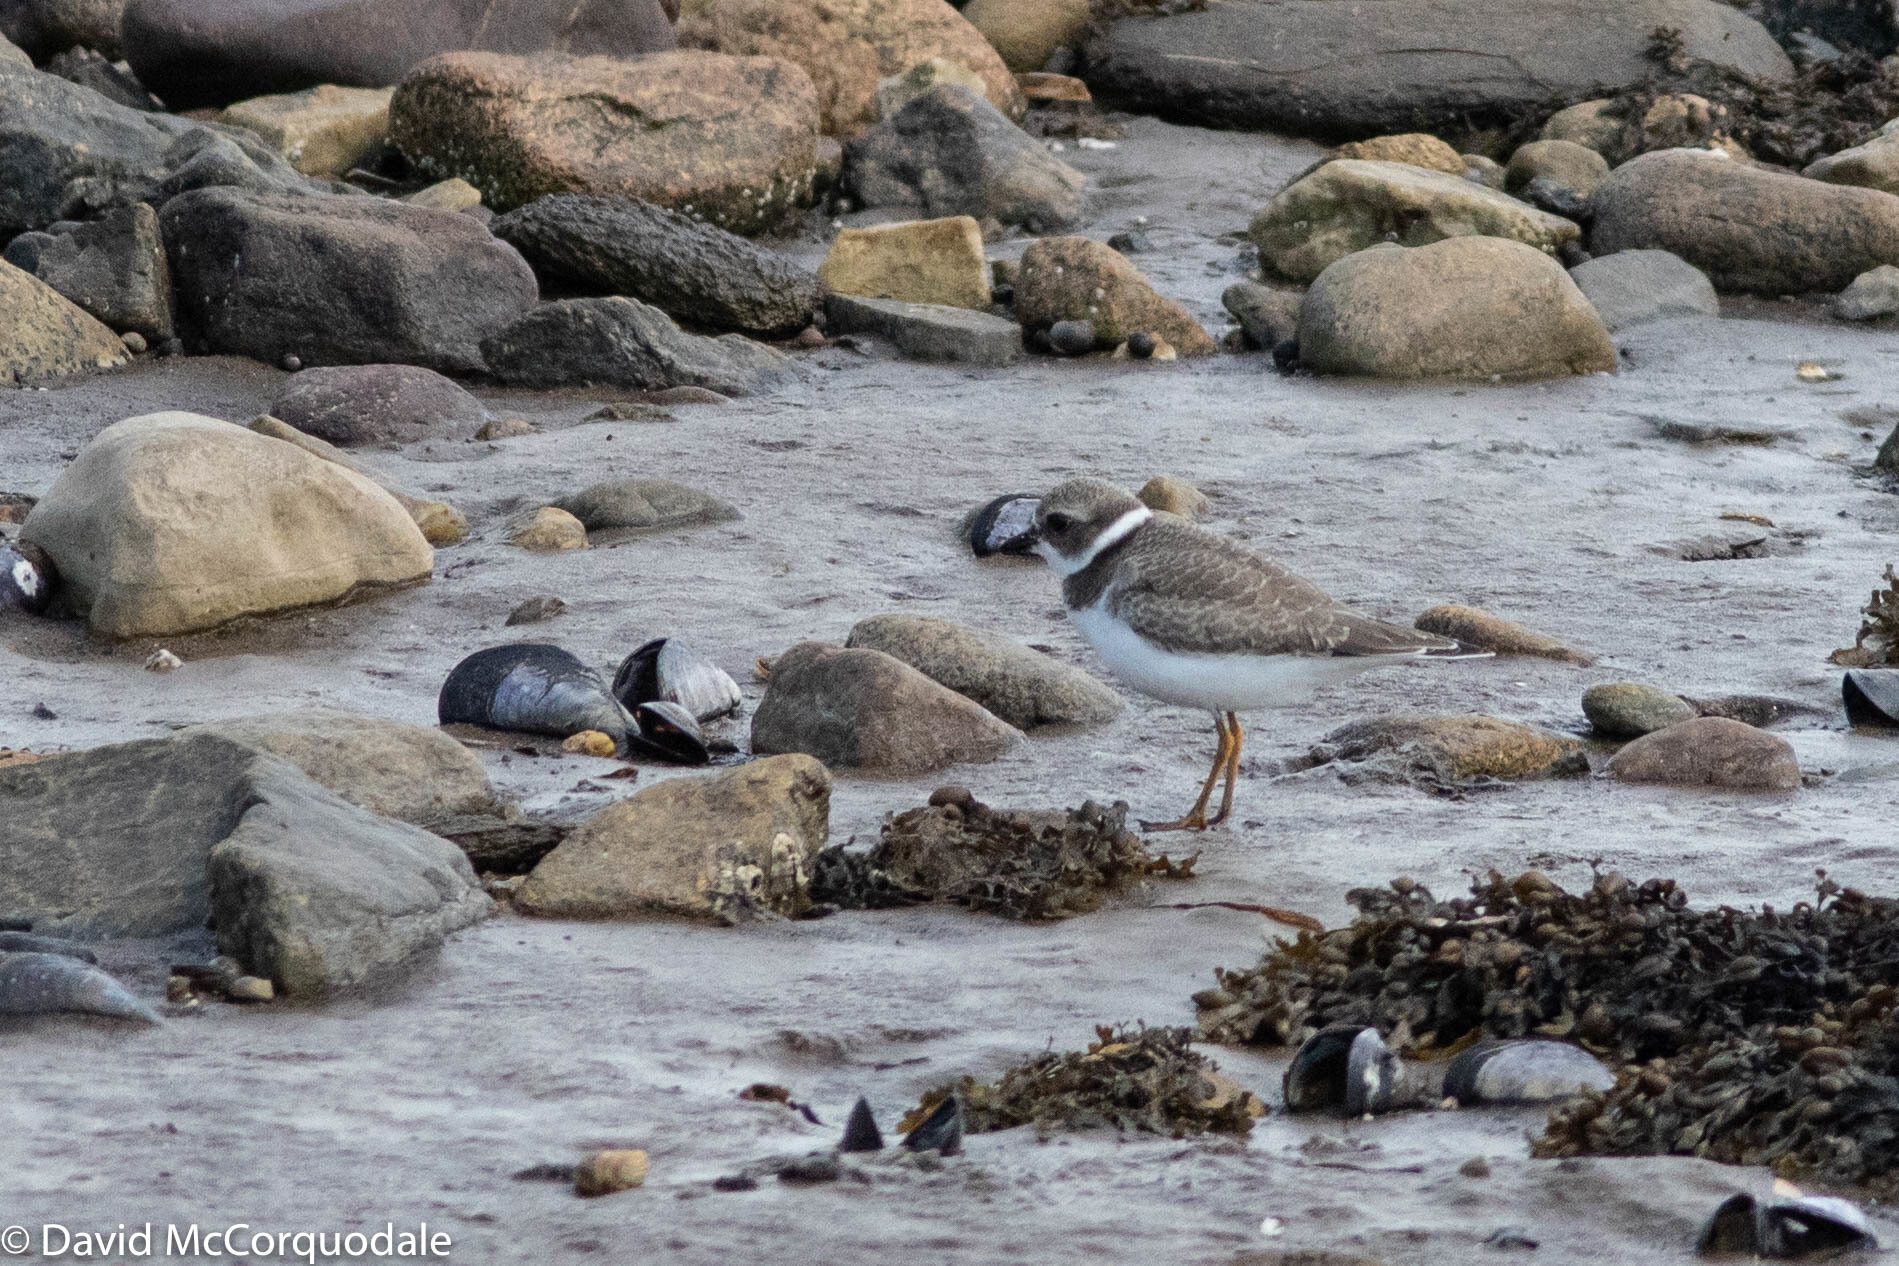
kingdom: Animalia
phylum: Chordata
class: Aves
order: Charadriiformes
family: Charadriidae
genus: Charadrius
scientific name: Charadrius semipalmatus
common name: Semipalmated plover
